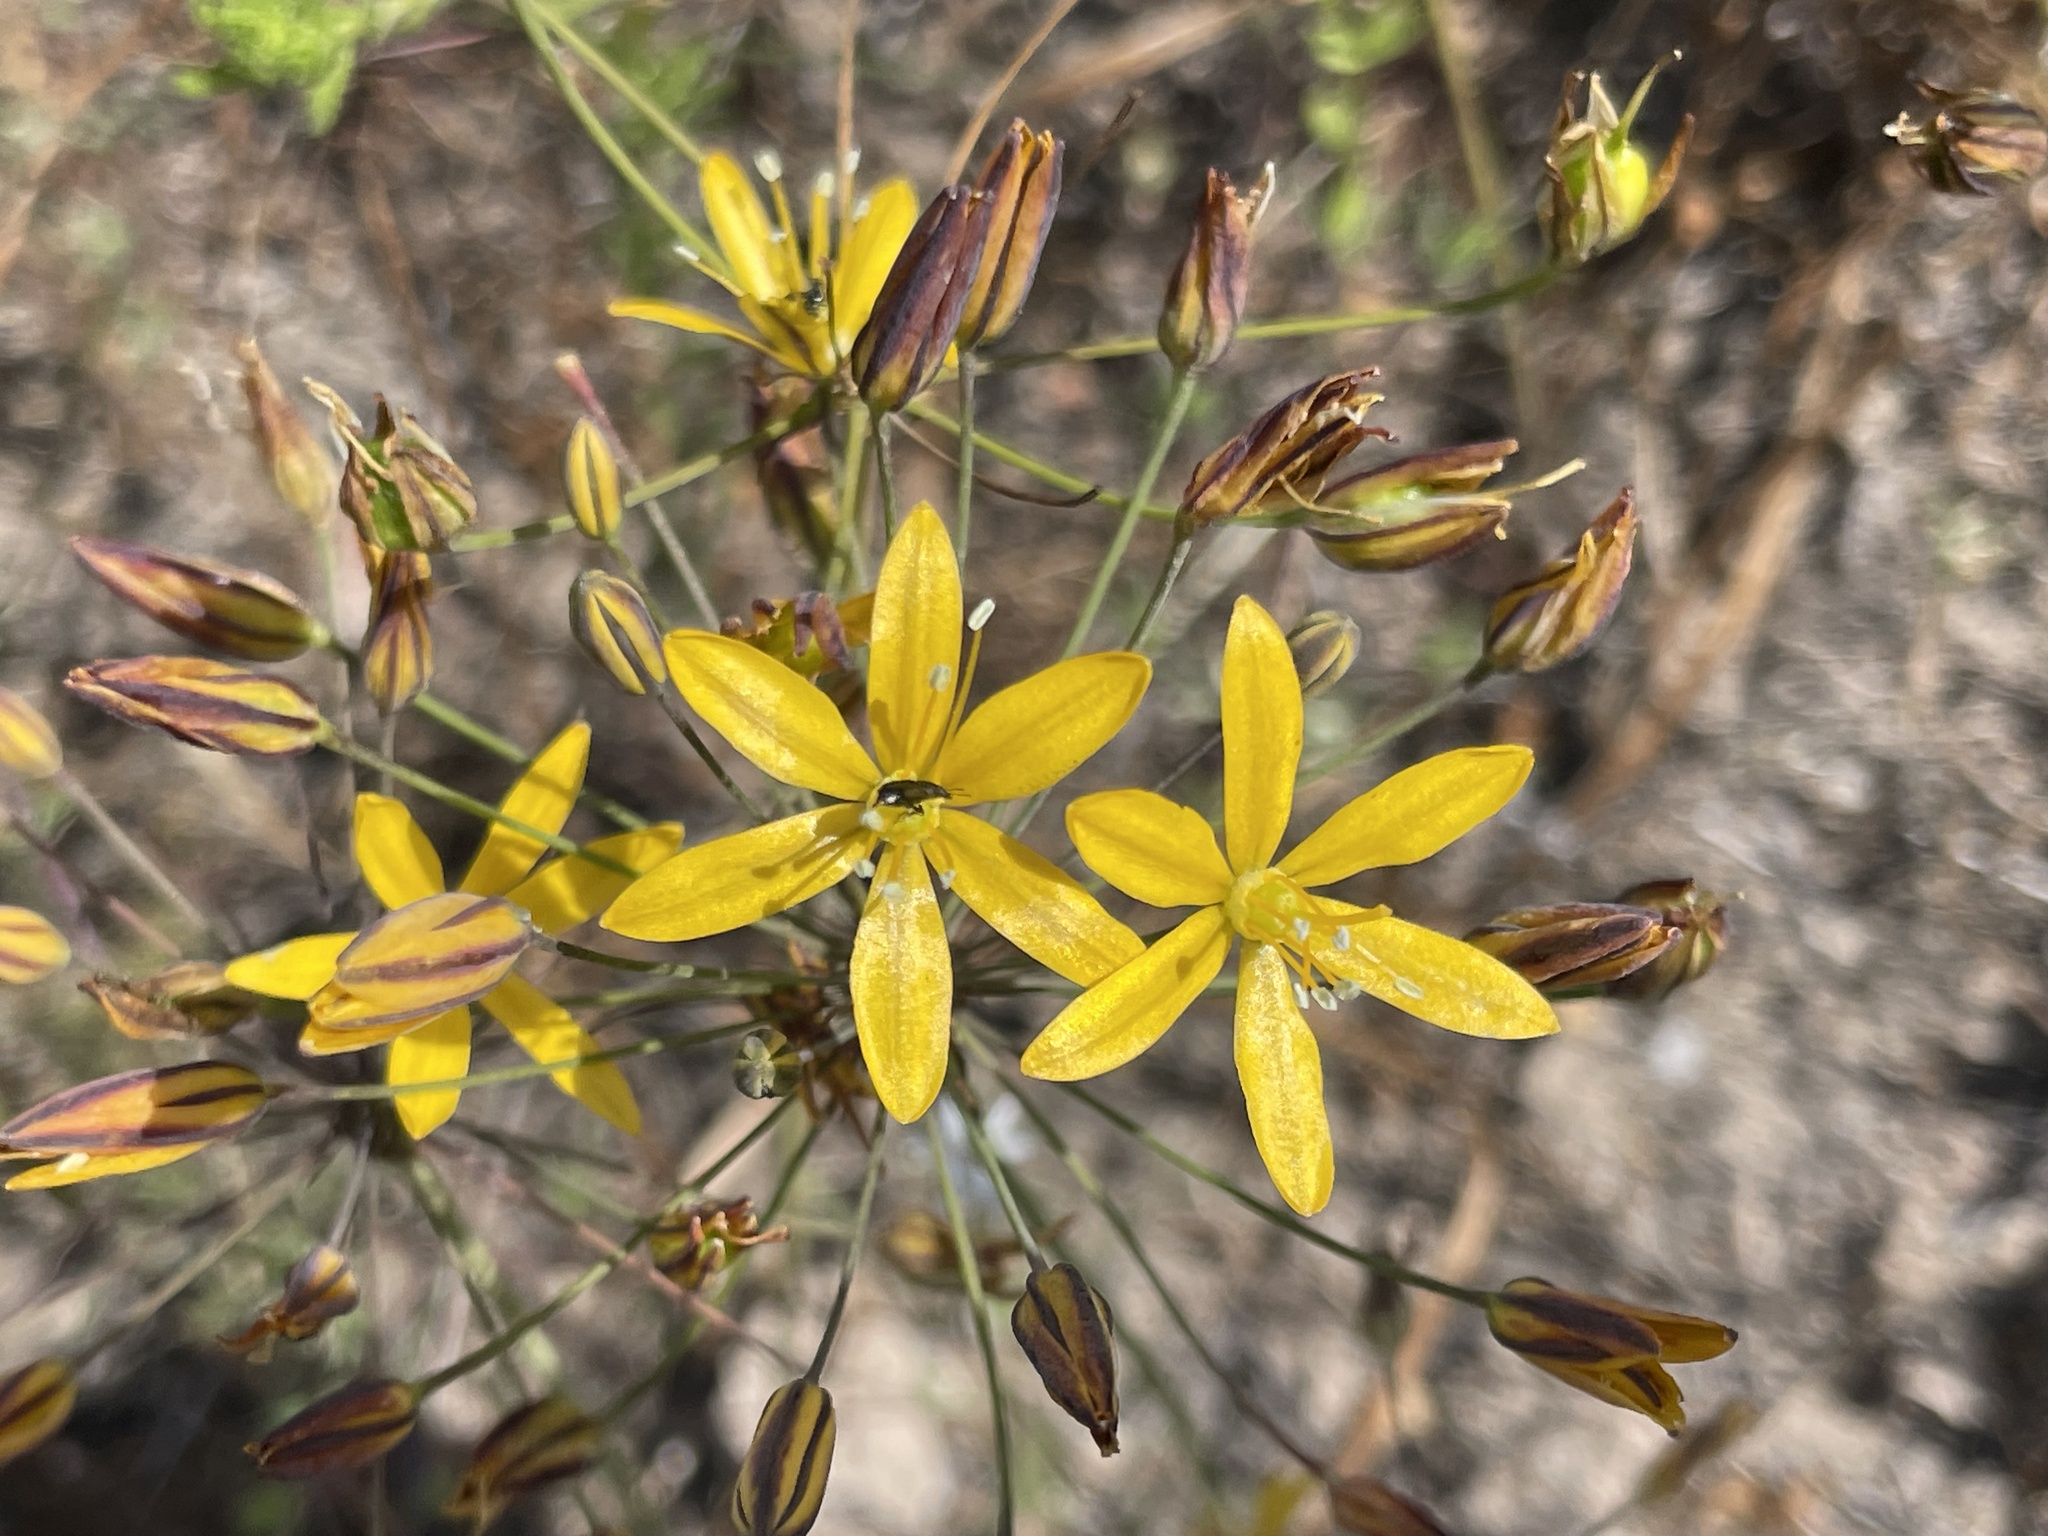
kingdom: Plantae
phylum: Tracheophyta
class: Liliopsida
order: Asparagales
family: Asparagaceae
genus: Bloomeria
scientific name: Bloomeria crocea
